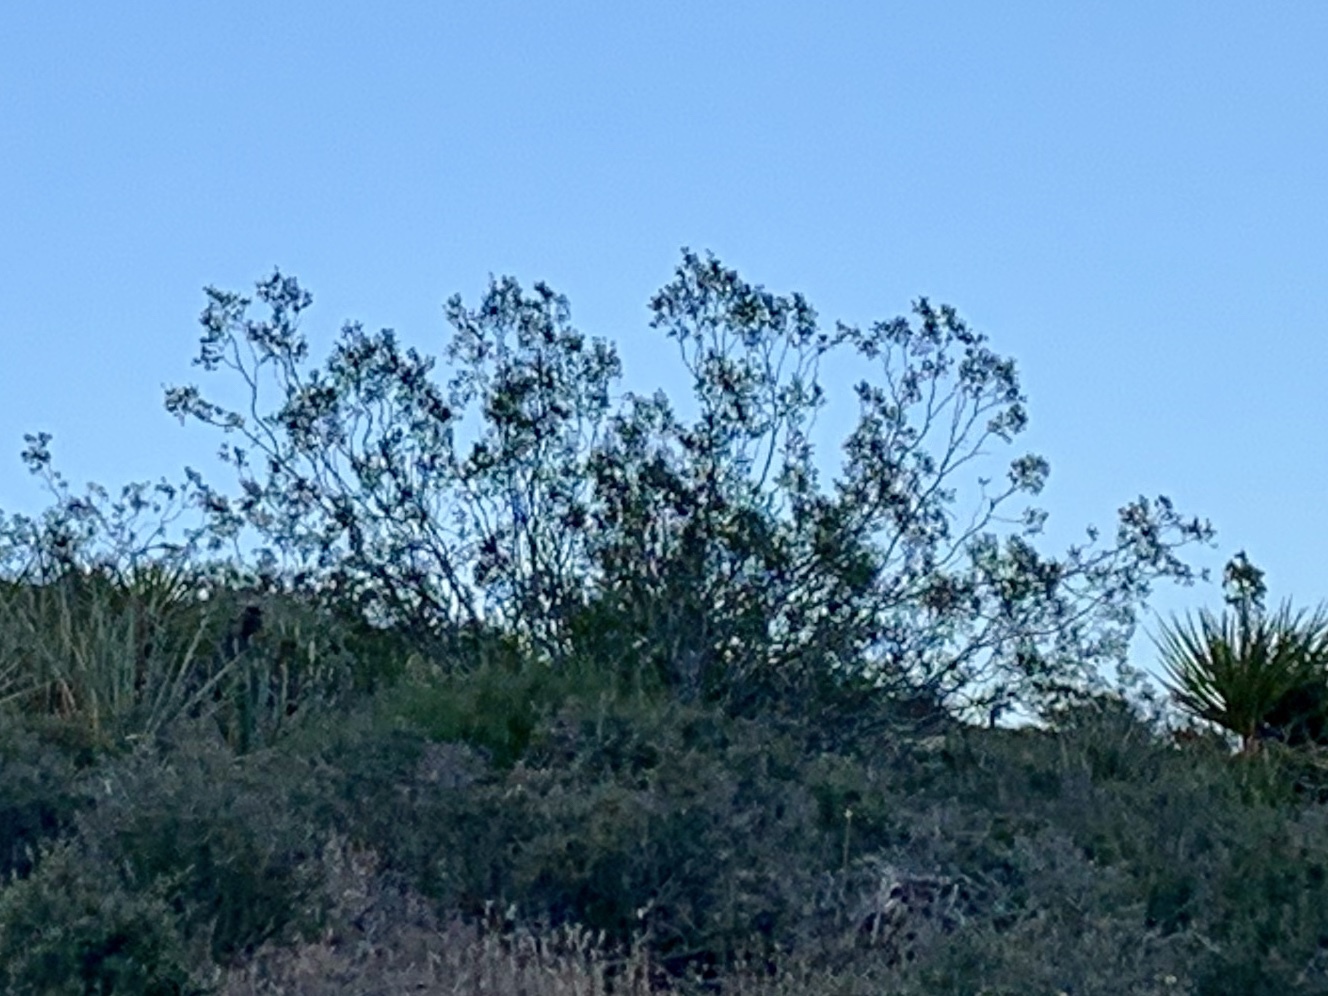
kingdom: Plantae
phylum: Tracheophyta
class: Magnoliopsida
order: Zygophyllales
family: Zygophyllaceae
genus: Larrea
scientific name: Larrea tridentata
